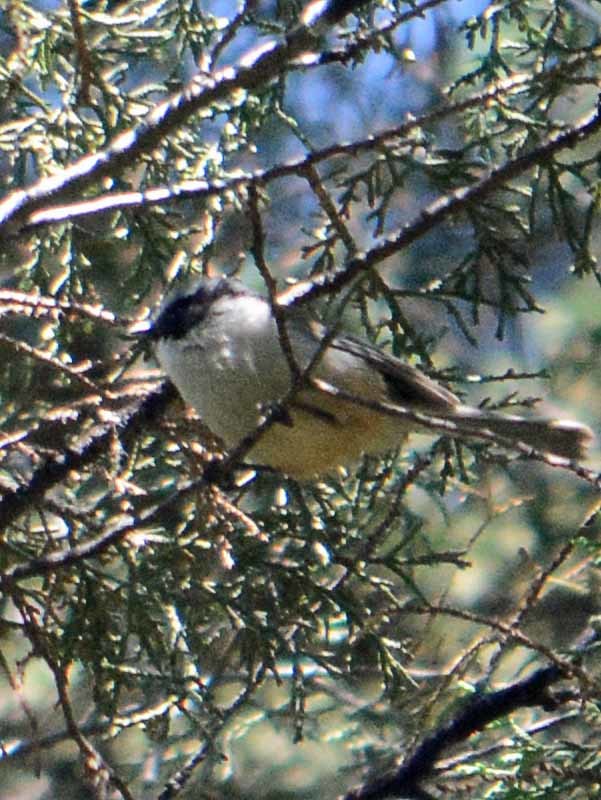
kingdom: Animalia
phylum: Chordata
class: Aves
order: Passeriformes
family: Aegithalidae
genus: Psaltriparus
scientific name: Psaltriparus minimus
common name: American bushtit
